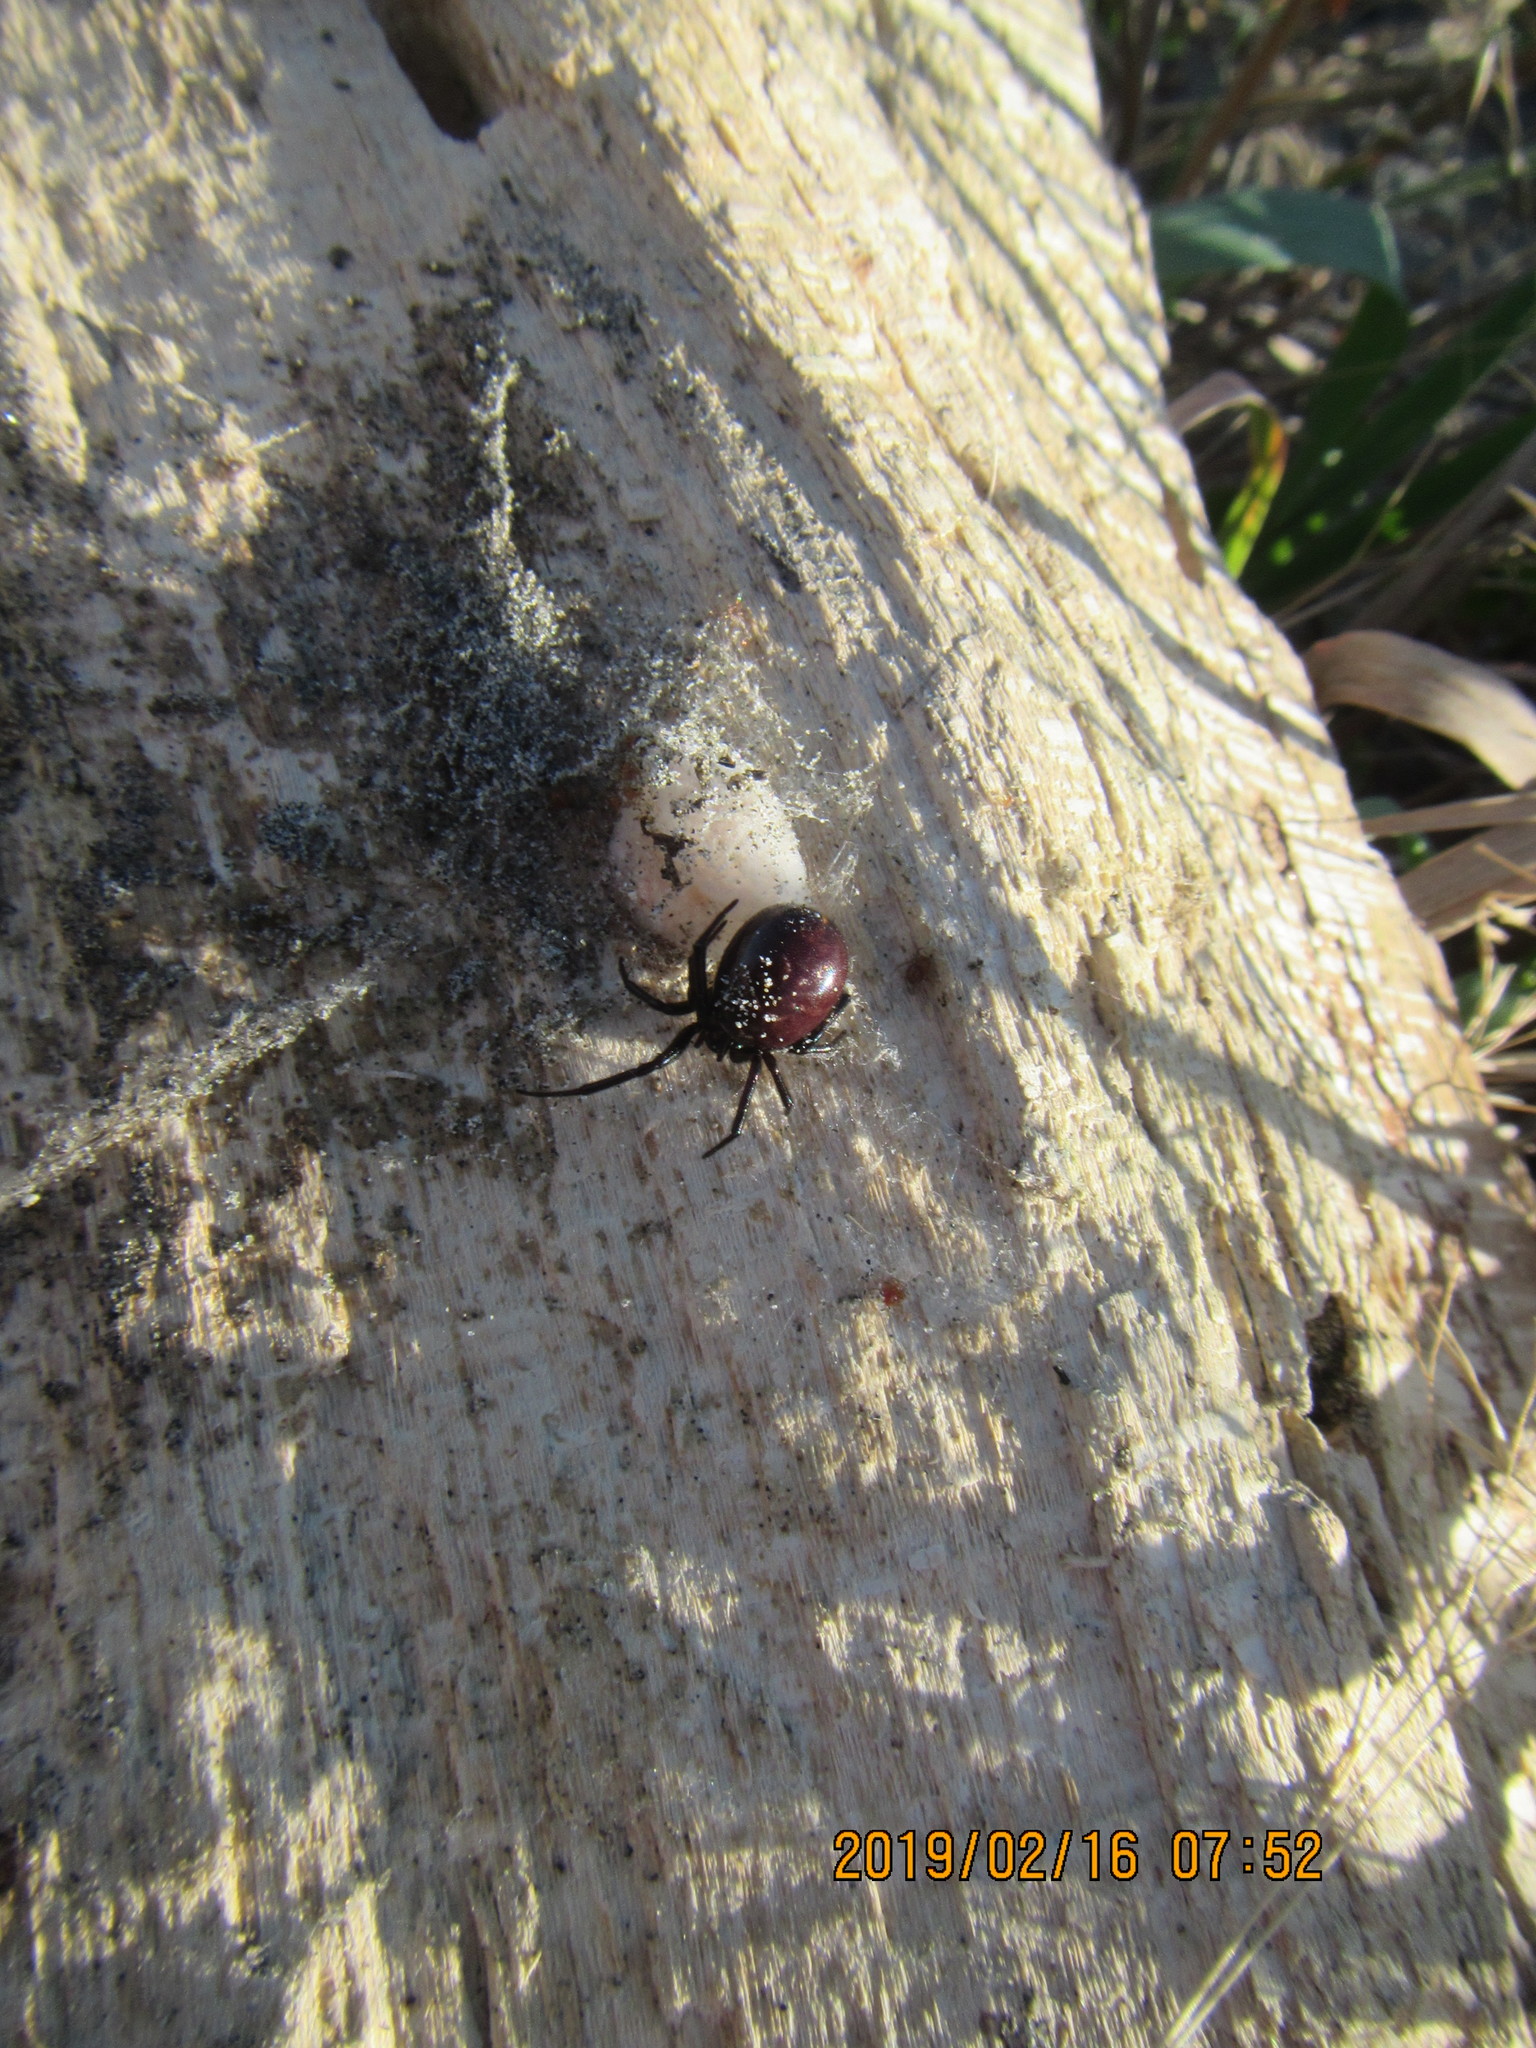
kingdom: Animalia
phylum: Arthropoda
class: Arachnida
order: Araneae
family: Theridiidae
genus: Steatoda
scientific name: Steatoda capensis
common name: Cobweb weaver
